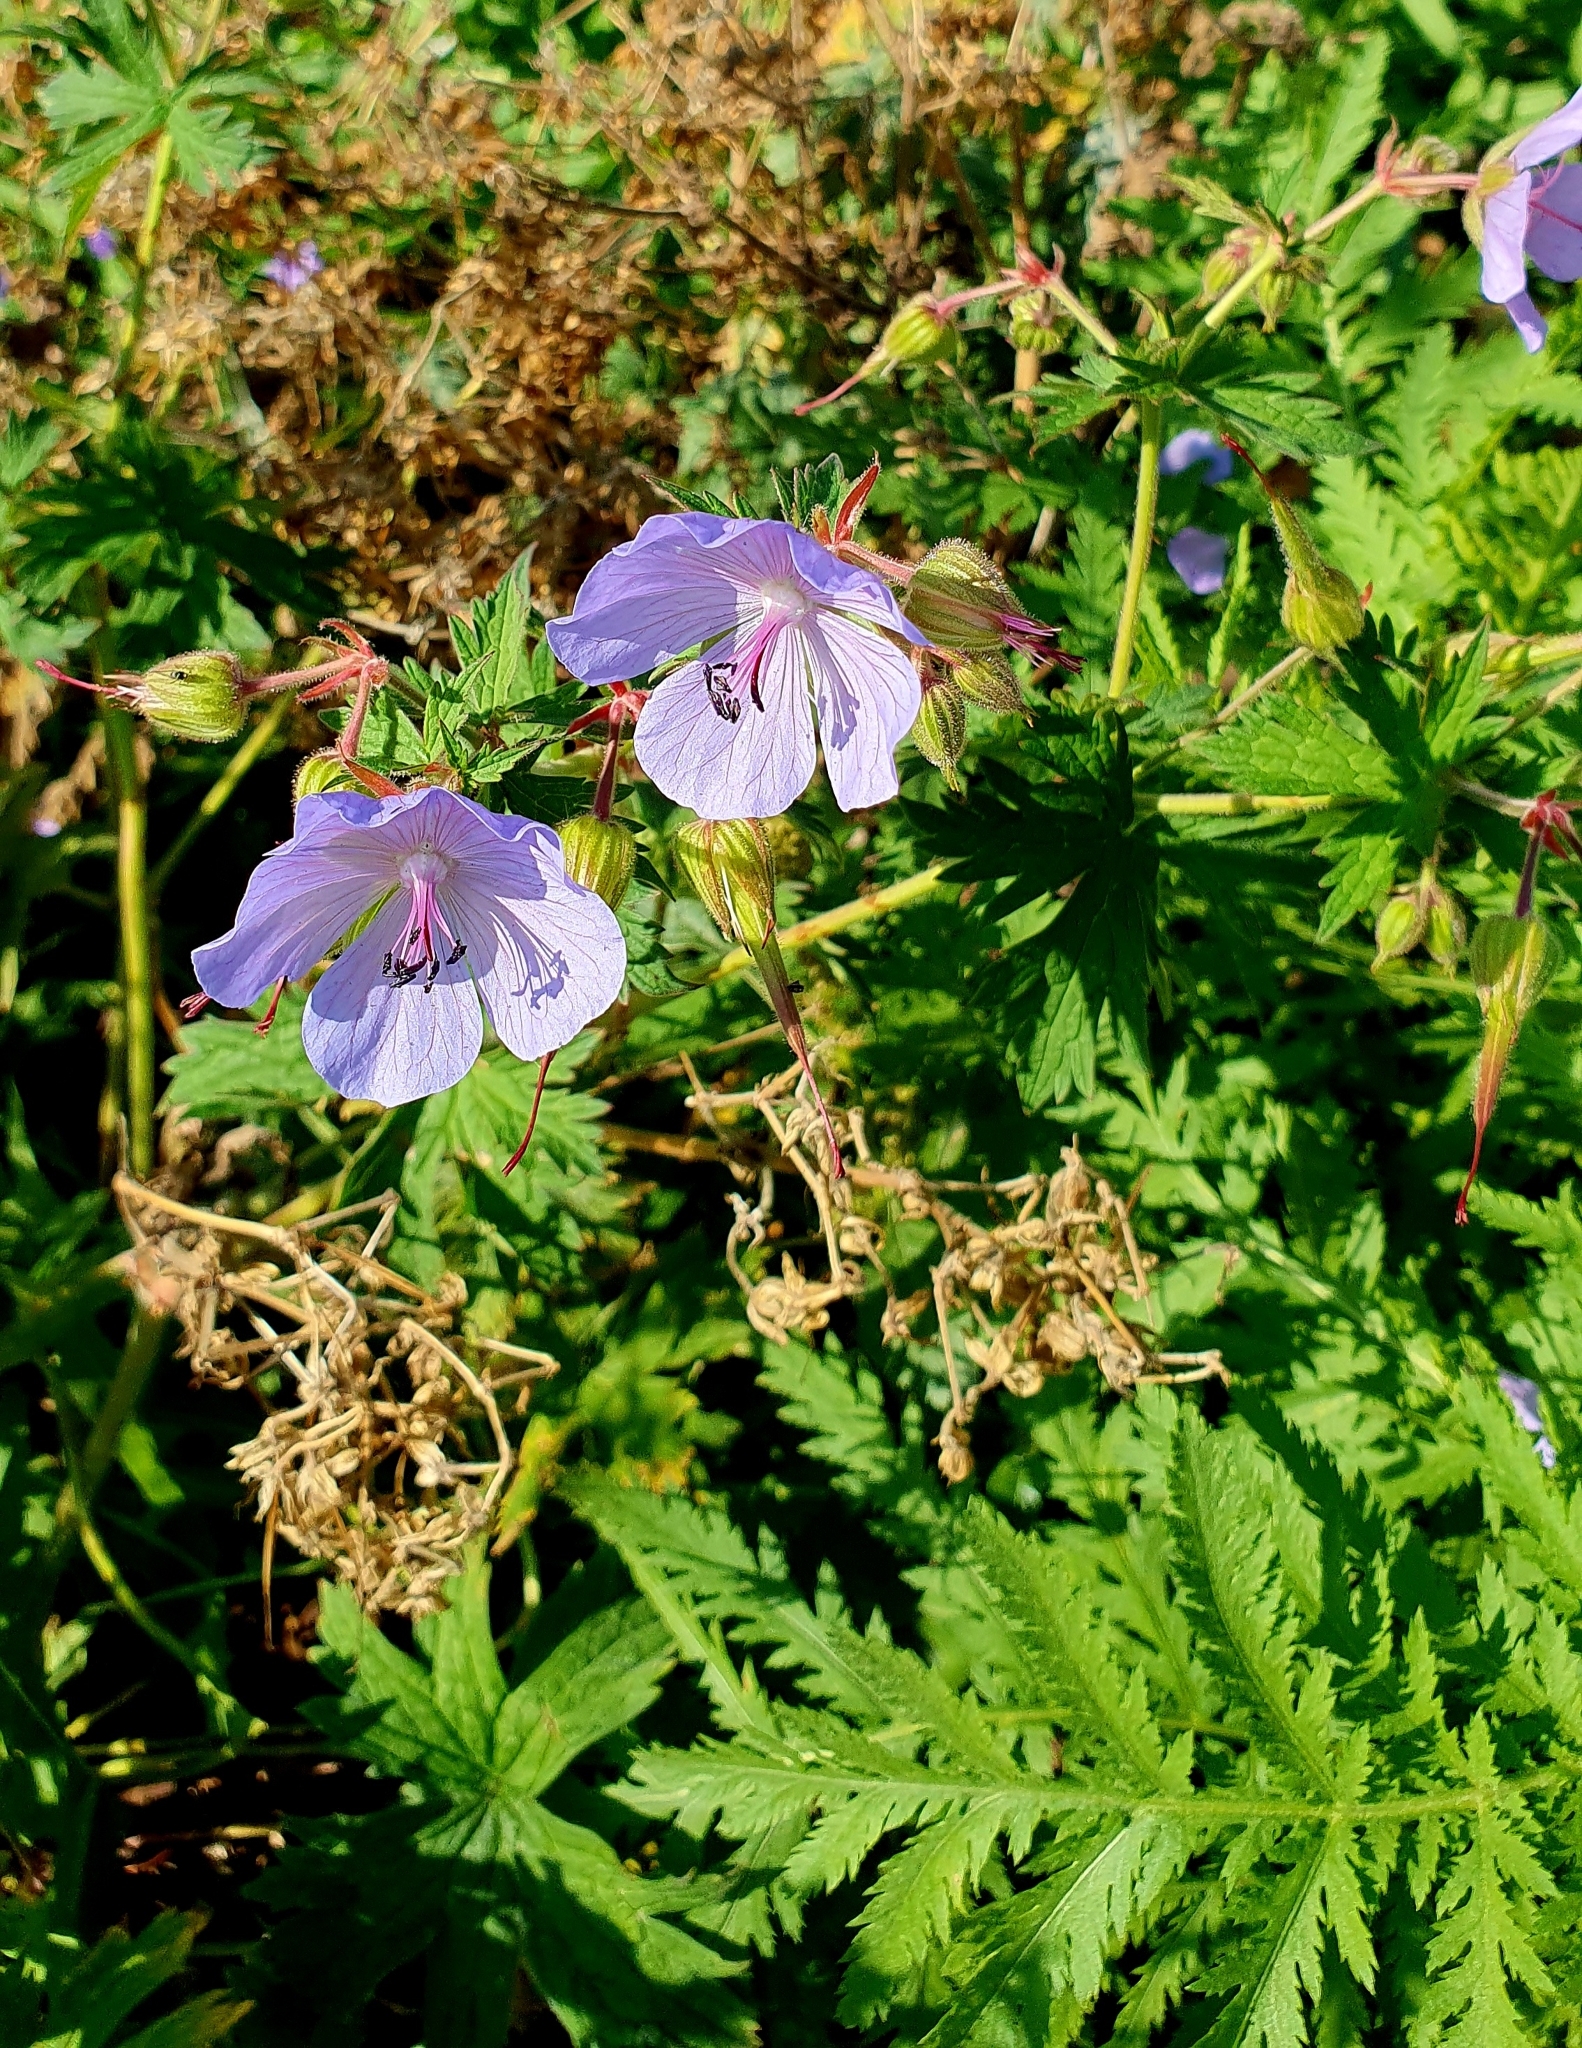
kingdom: Plantae
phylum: Tracheophyta
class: Magnoliopsida
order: Geraniales
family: Geraniaceae
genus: Geranium
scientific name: Geranium pratense
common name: Meadow crane's-bill
